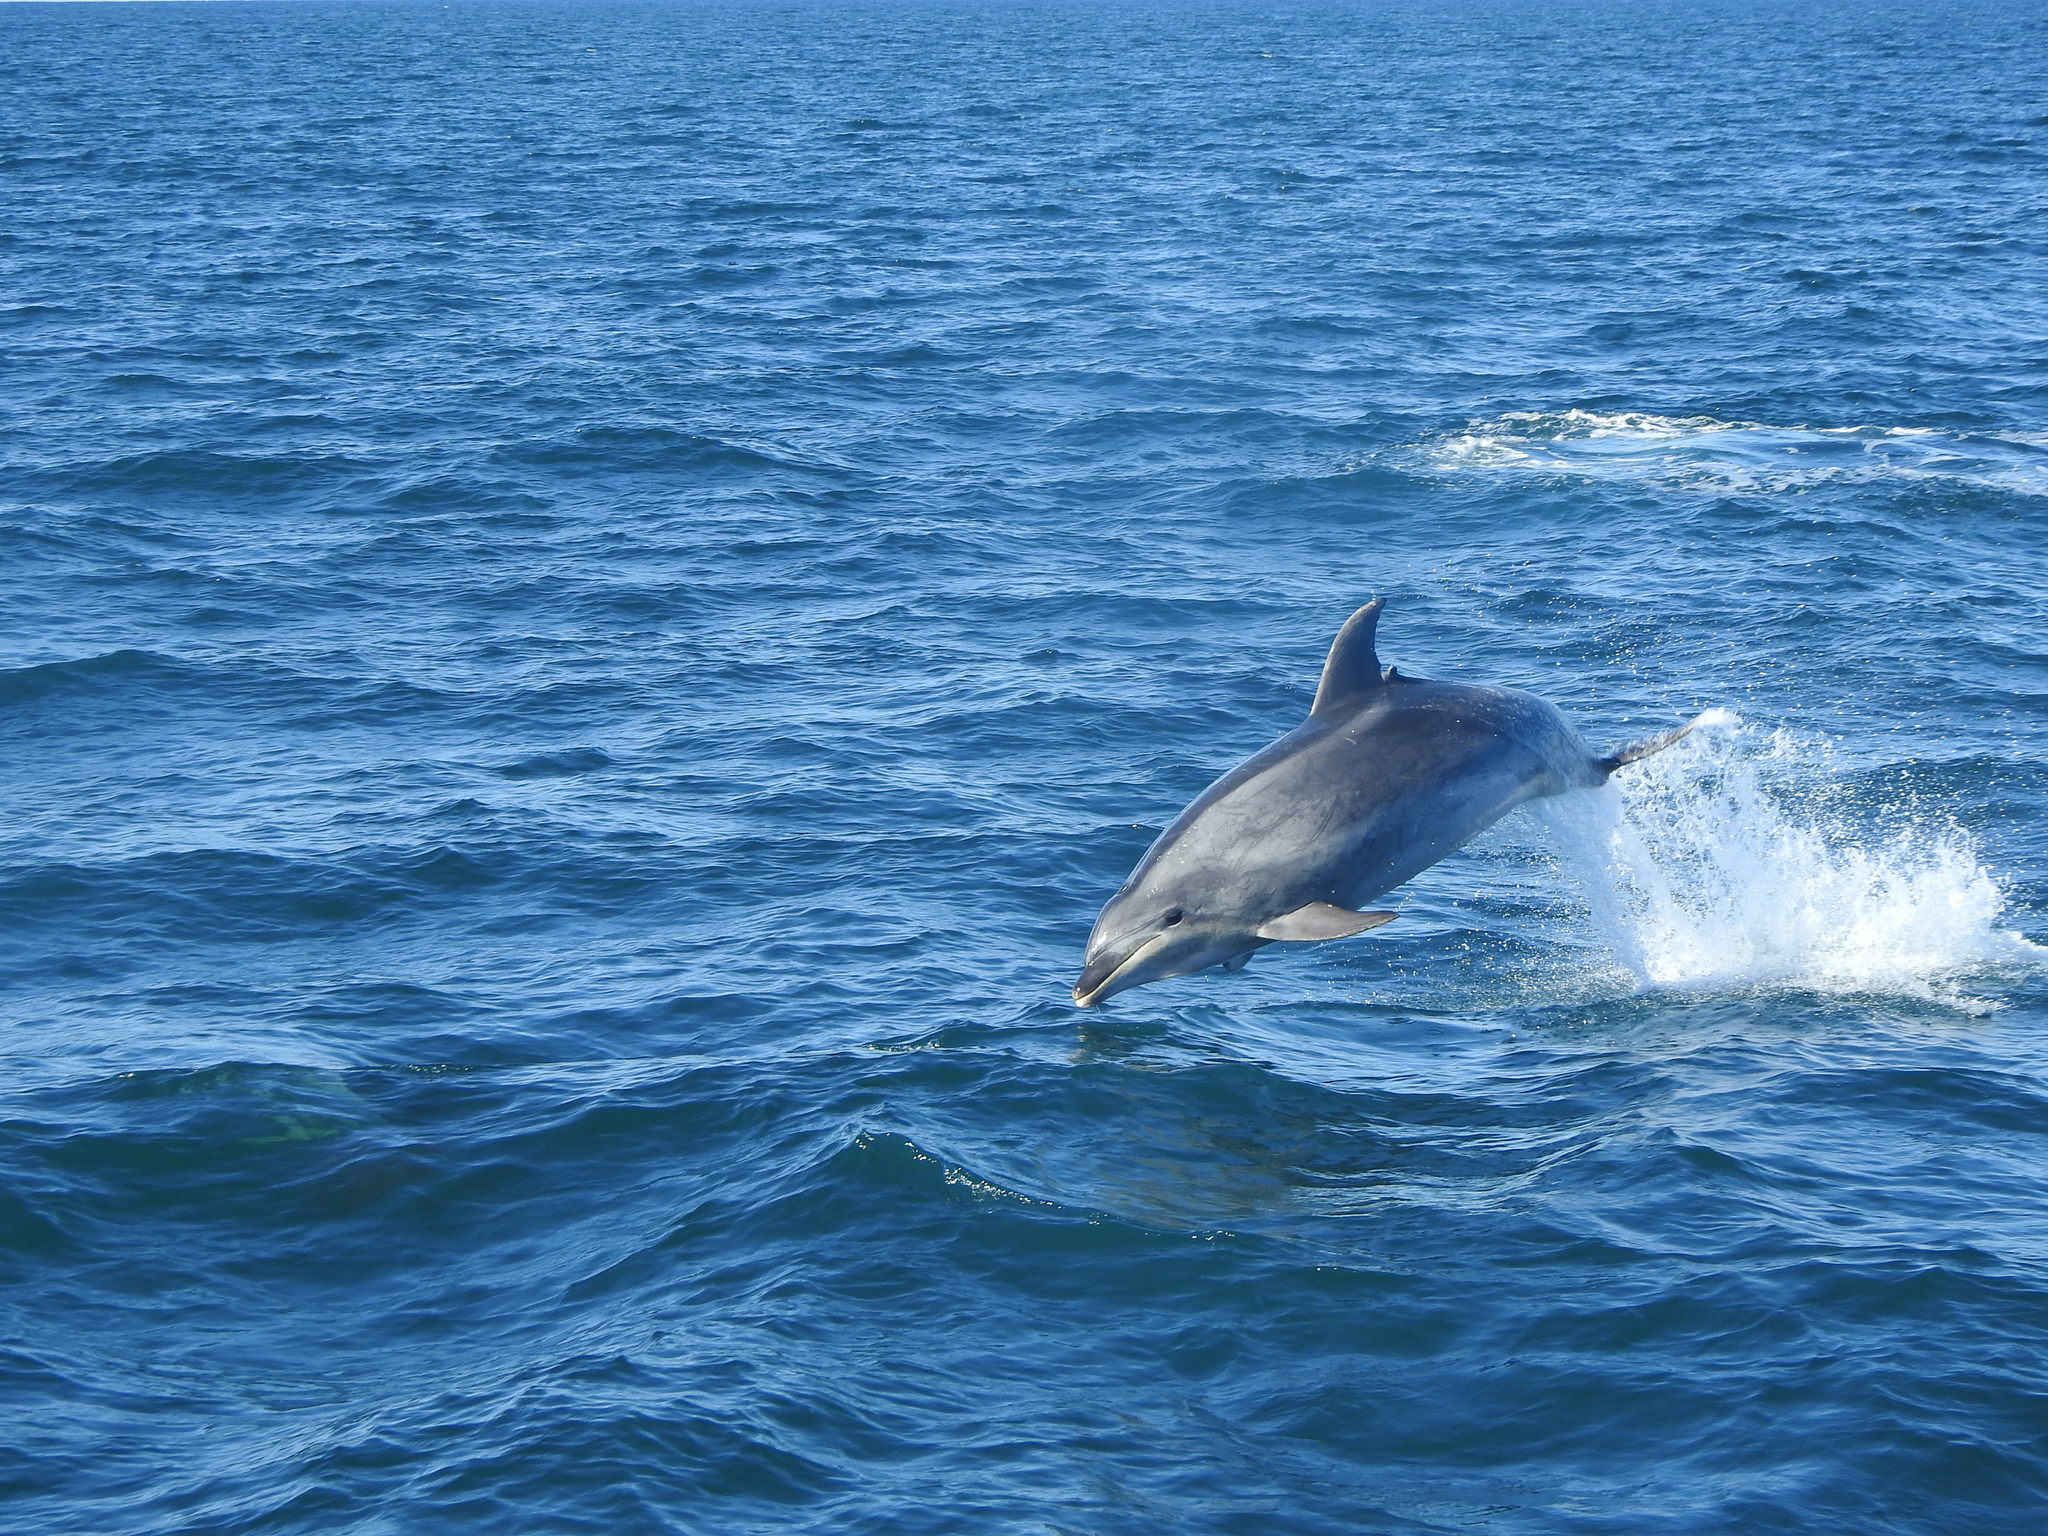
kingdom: Animalia
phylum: Chordata
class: Mammalia
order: Cetacea
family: Delphinidae
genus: Tursiops
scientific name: Tursiops truncatus
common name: Bottlenose dolphin
